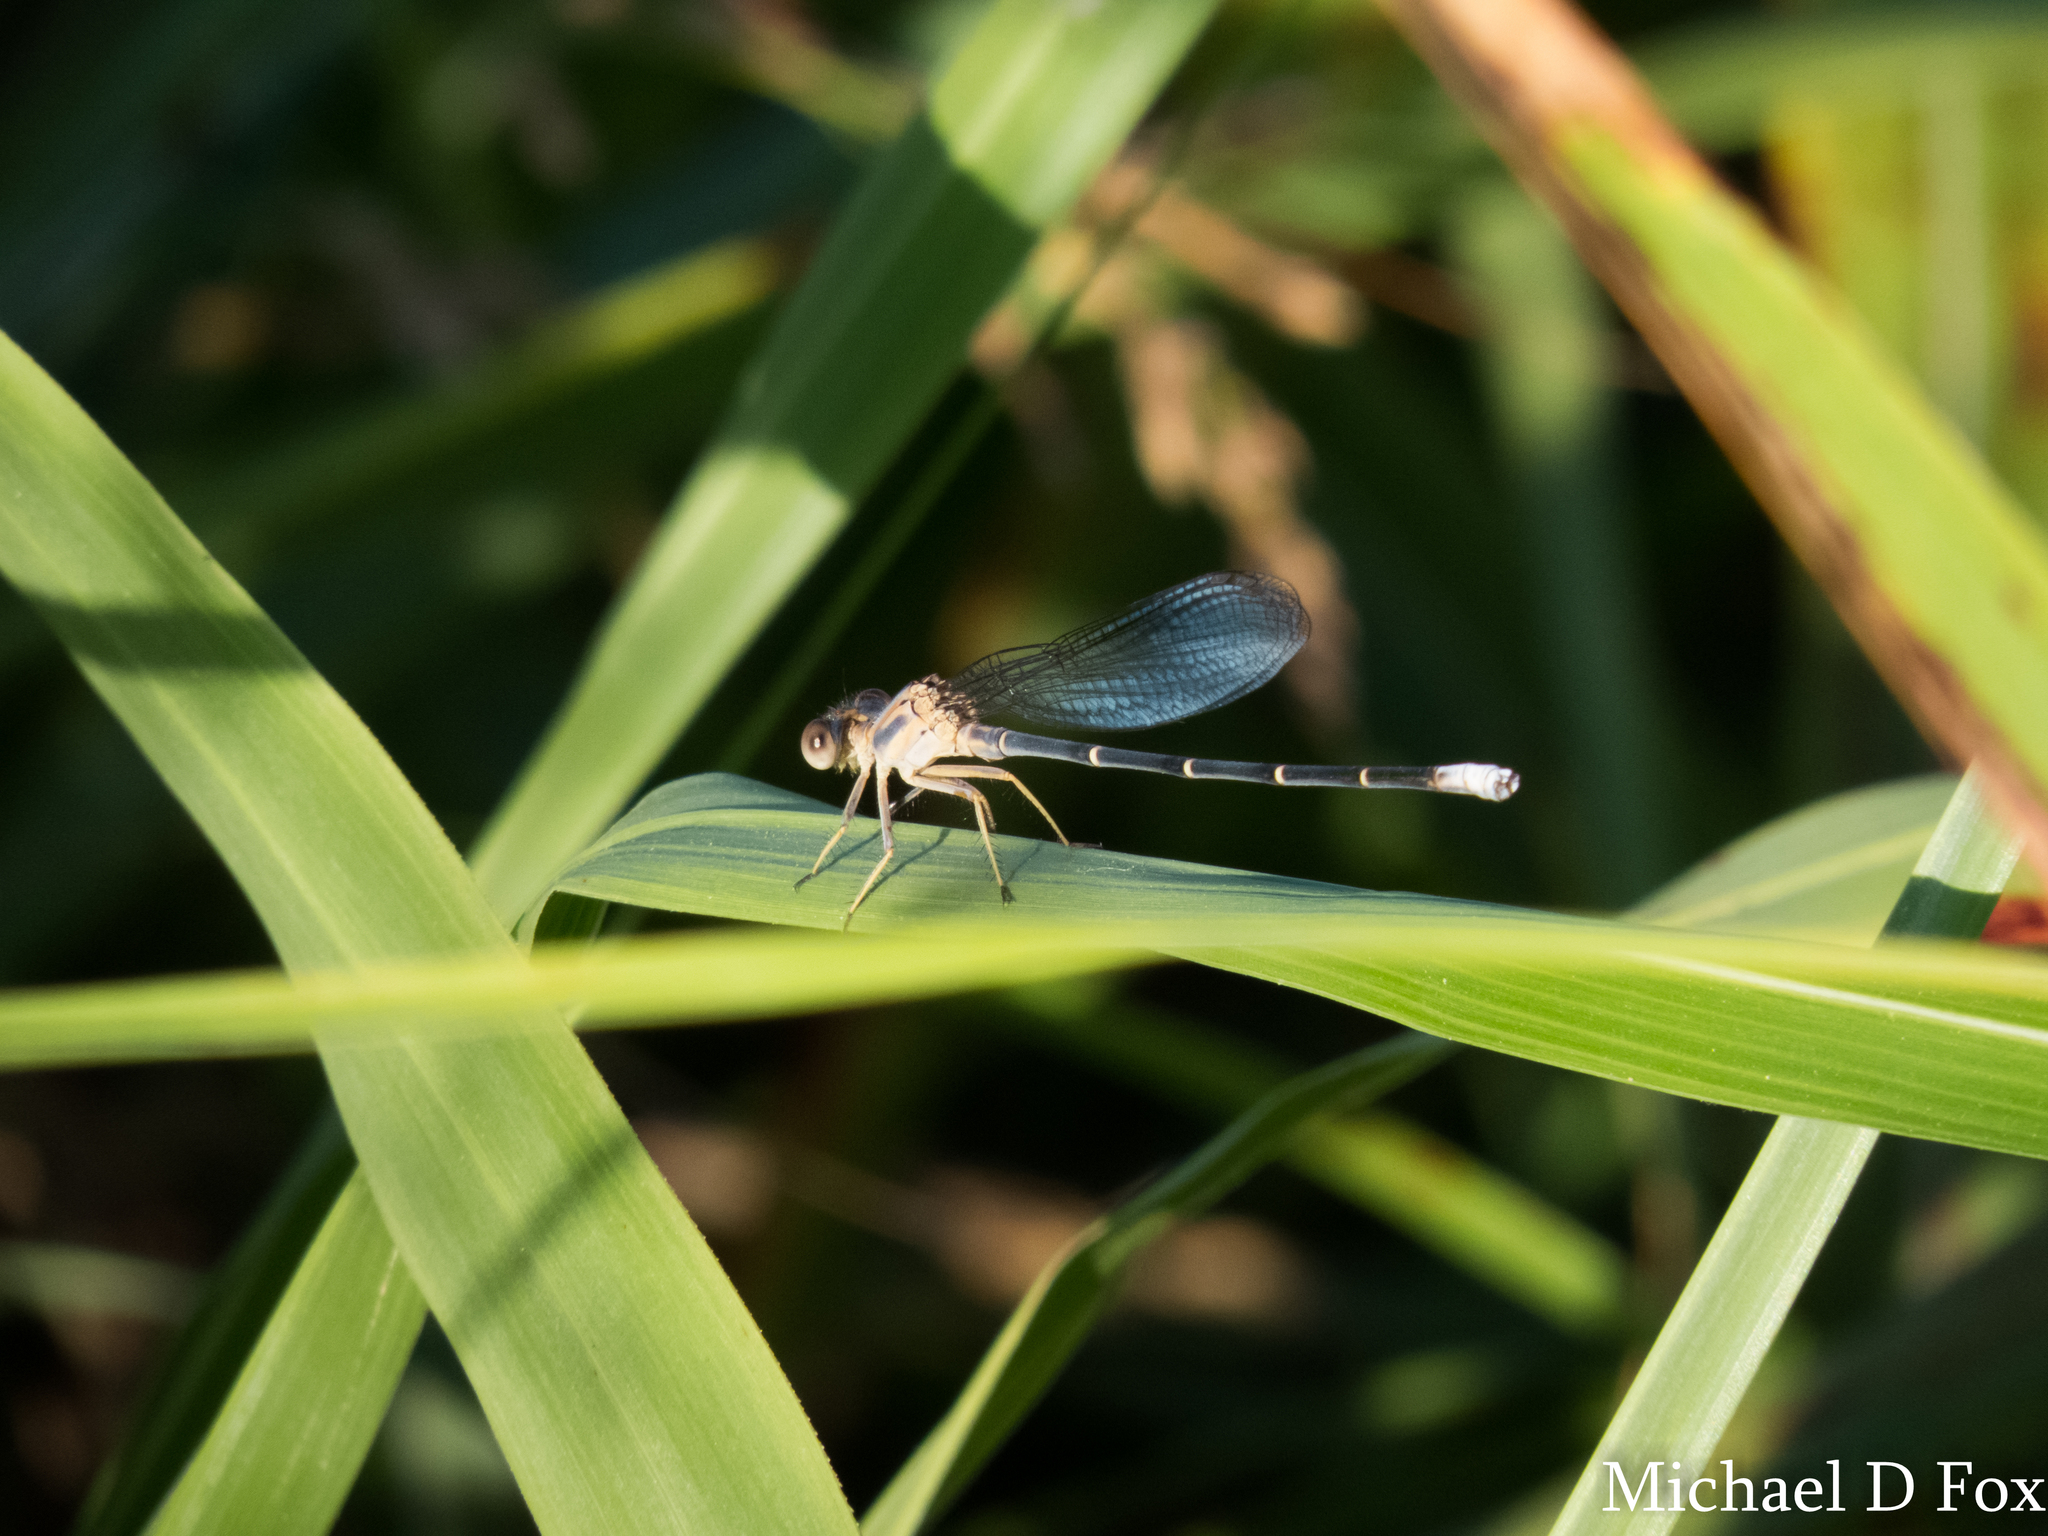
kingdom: Animalia
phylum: Arthropoda
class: Insecta
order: Odonata
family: Coenagrionidae
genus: Argia
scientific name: Argia moesta
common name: Powdered dancer
